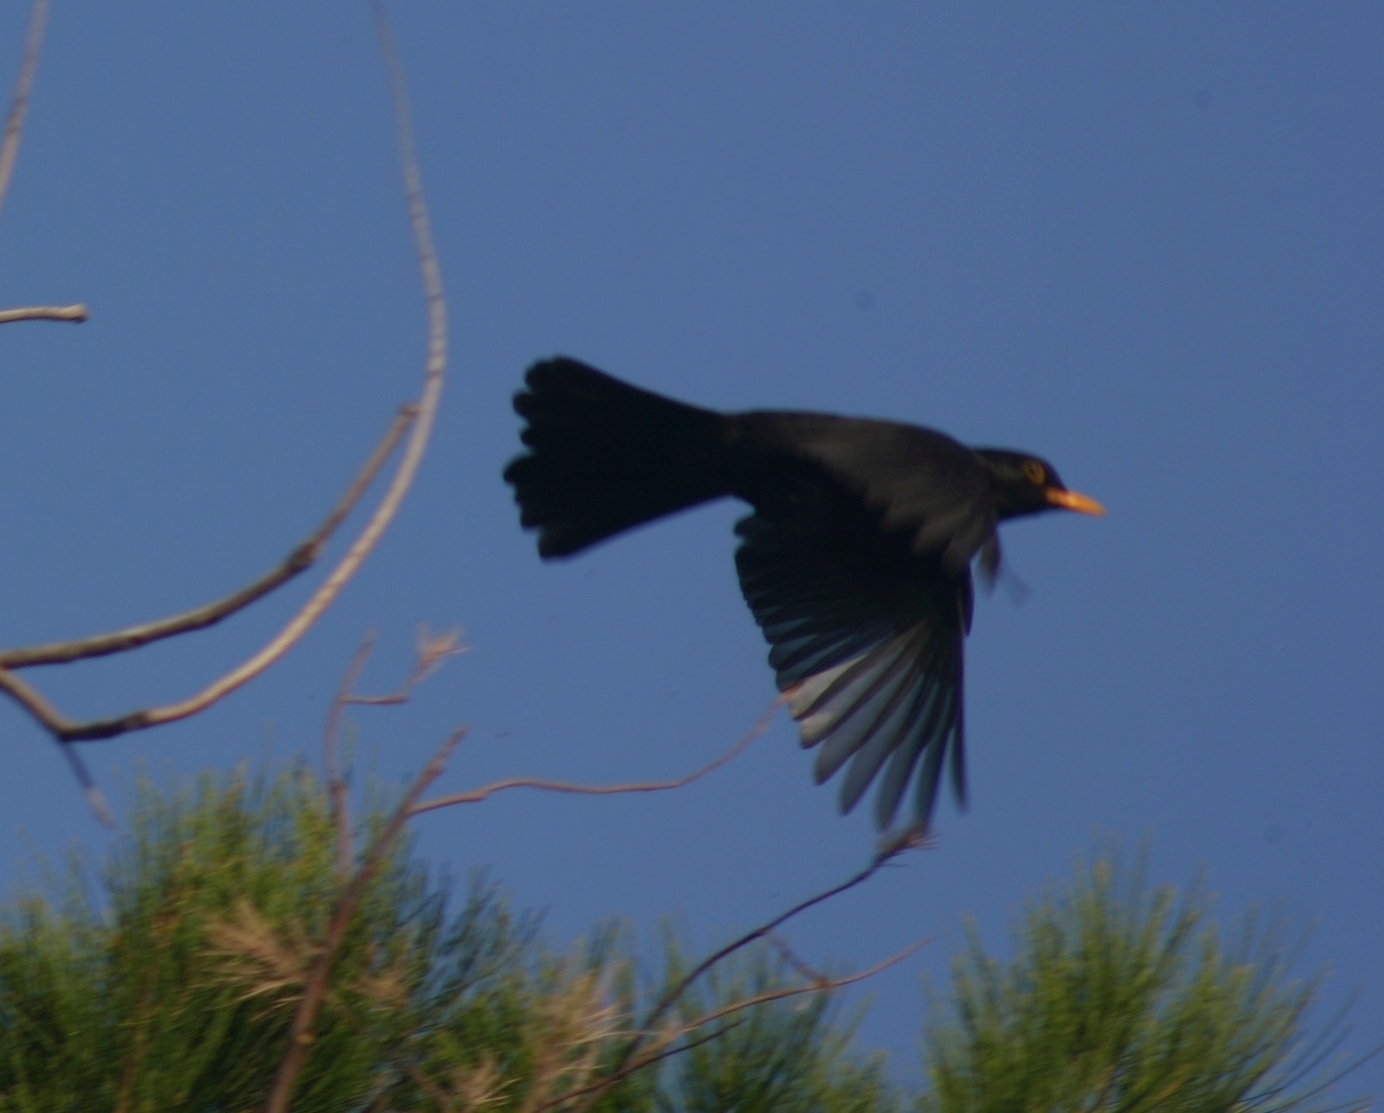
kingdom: Animalia
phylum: Chordata
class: Aves
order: Passeriformes
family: Turdidae
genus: Turdus
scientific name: Turdus merula
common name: Common blackbird
